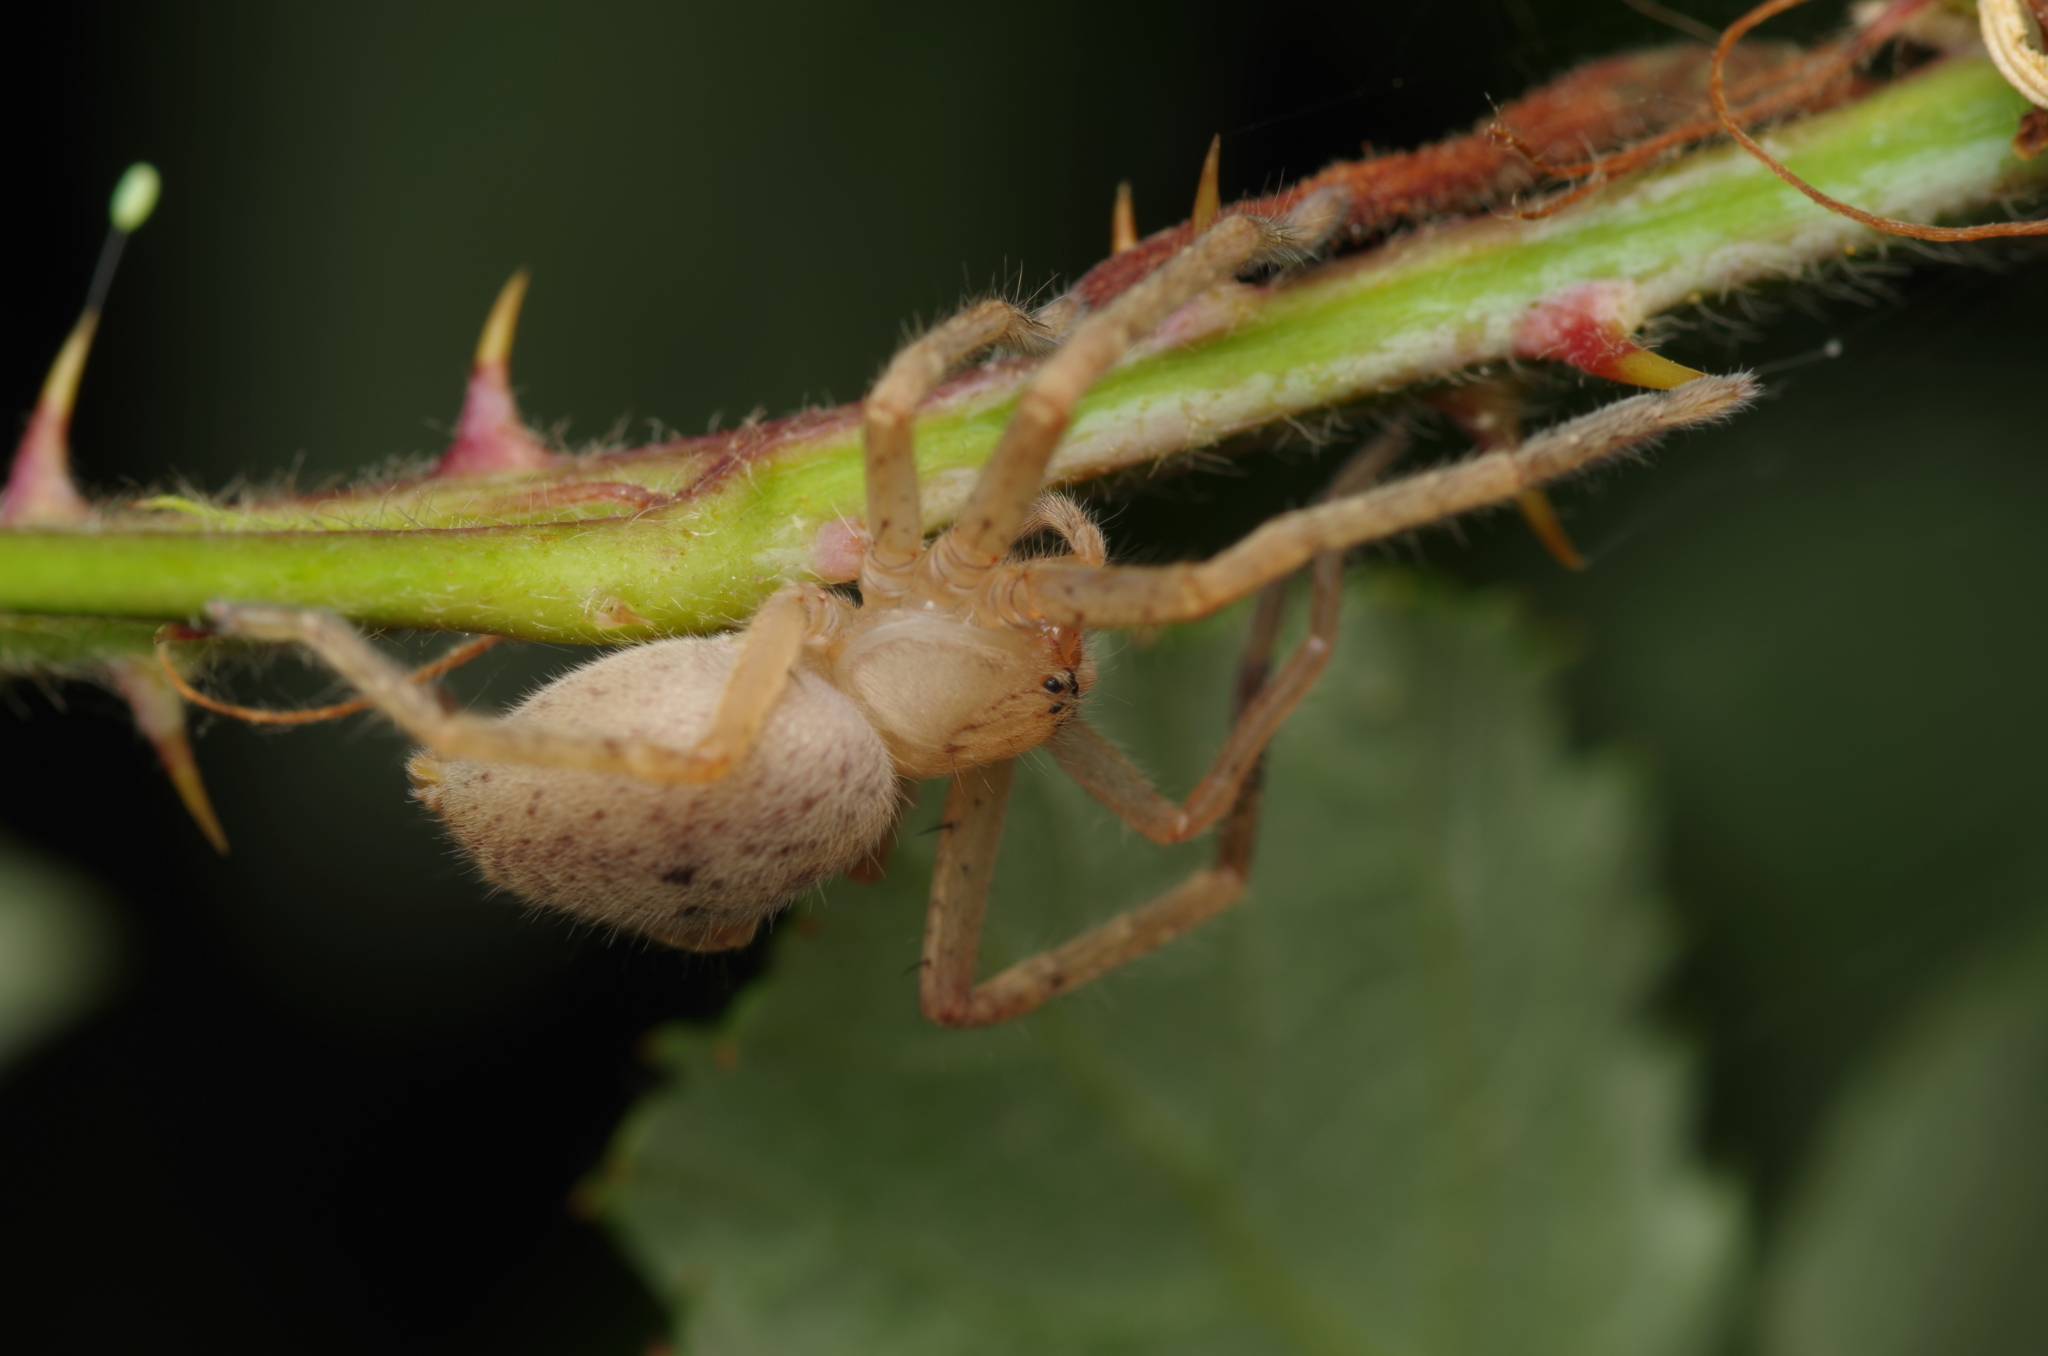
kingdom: Animalia
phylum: Arthropoda
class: Arachnida
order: Araneae
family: Sparassidae
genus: Olios
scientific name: Olios argelasius
